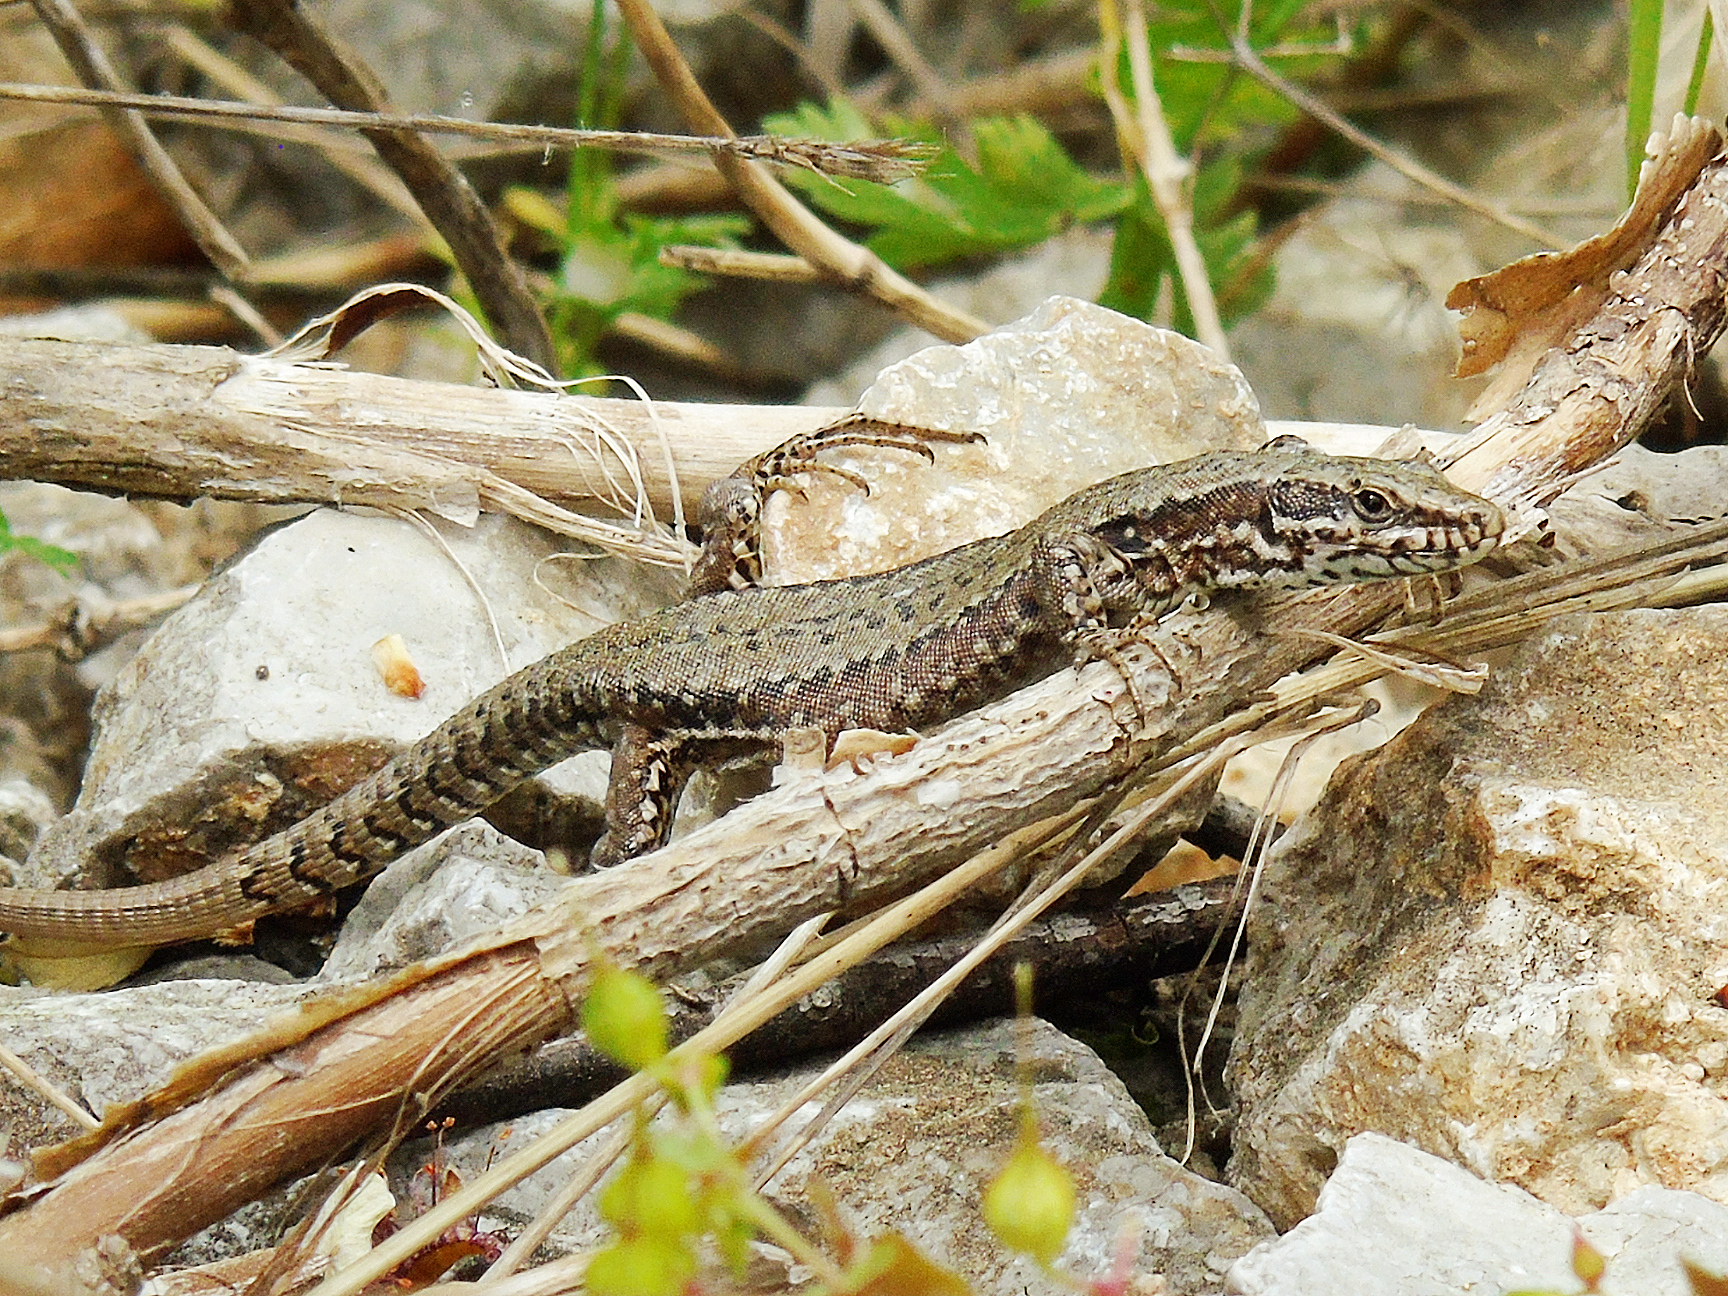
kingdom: Animalia
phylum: Chordata
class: Squamata
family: Lacertidae
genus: Podarcis
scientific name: Podarcis muralis
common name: Common wall lizard
